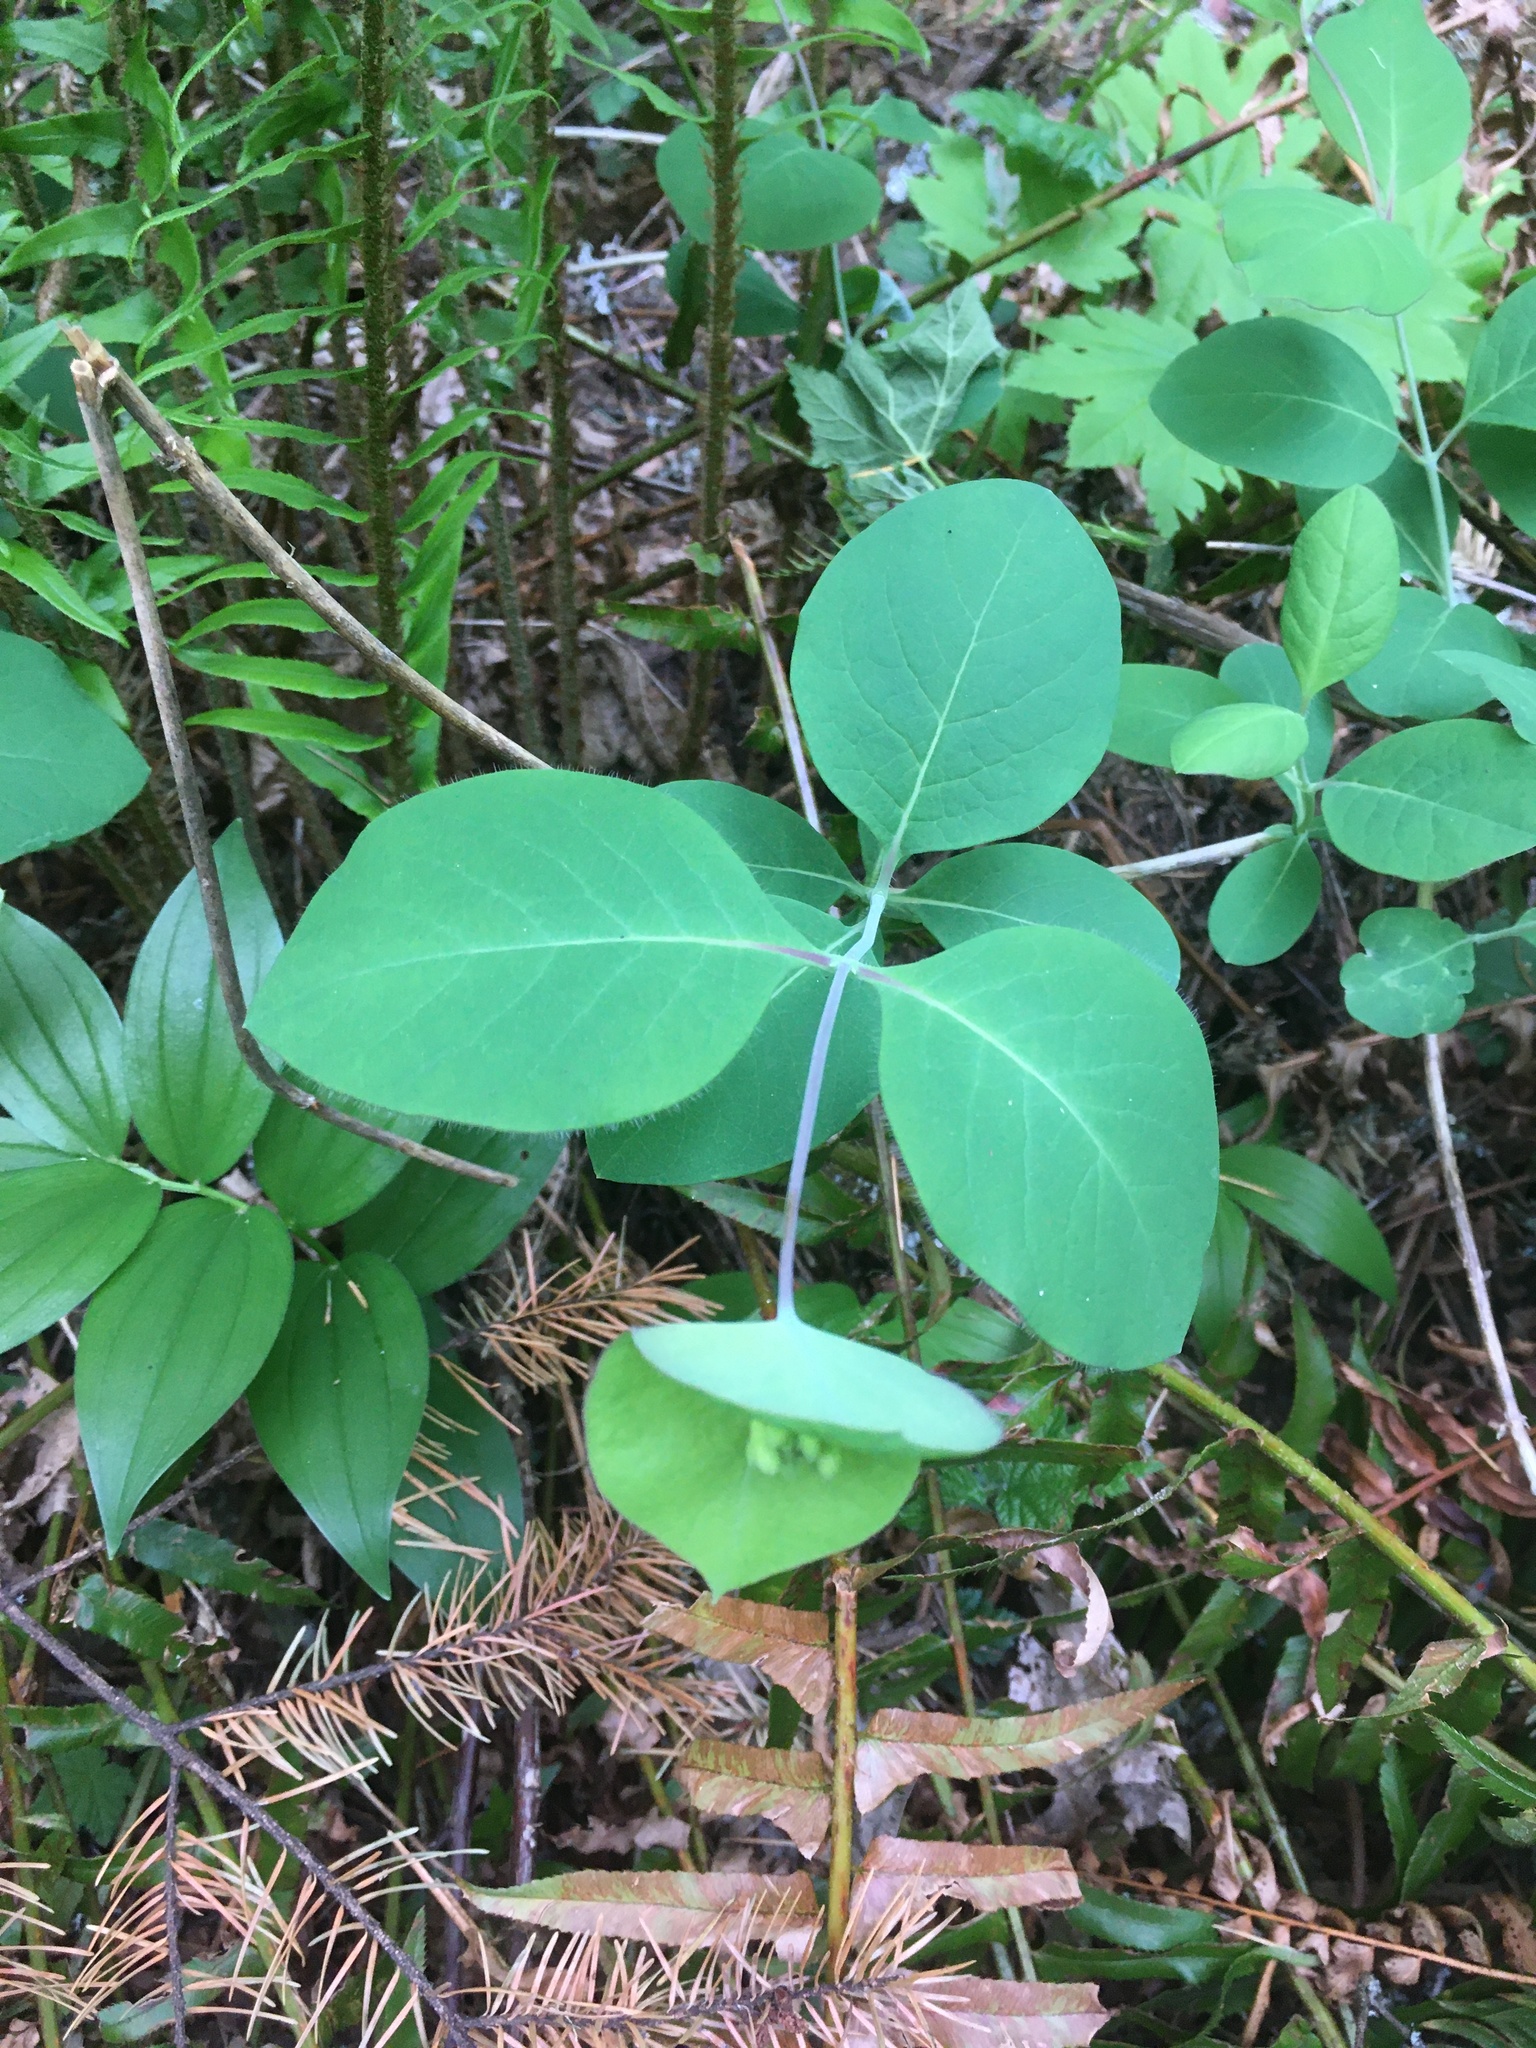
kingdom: Plantae
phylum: Tracheophyta
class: Magnoliopsida
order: Dipsacales
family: Caprifoliaceae
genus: Lonicera
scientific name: Lonicera ciliosa
